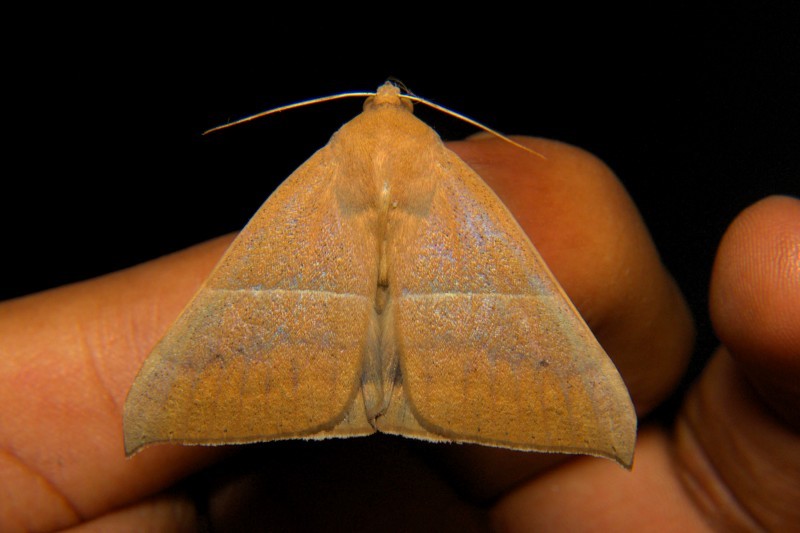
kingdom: Animalia
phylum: Arthropoda
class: Insecta
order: Lepidoptera
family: Erebidae
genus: Ophisma
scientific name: Ophisma gravata
